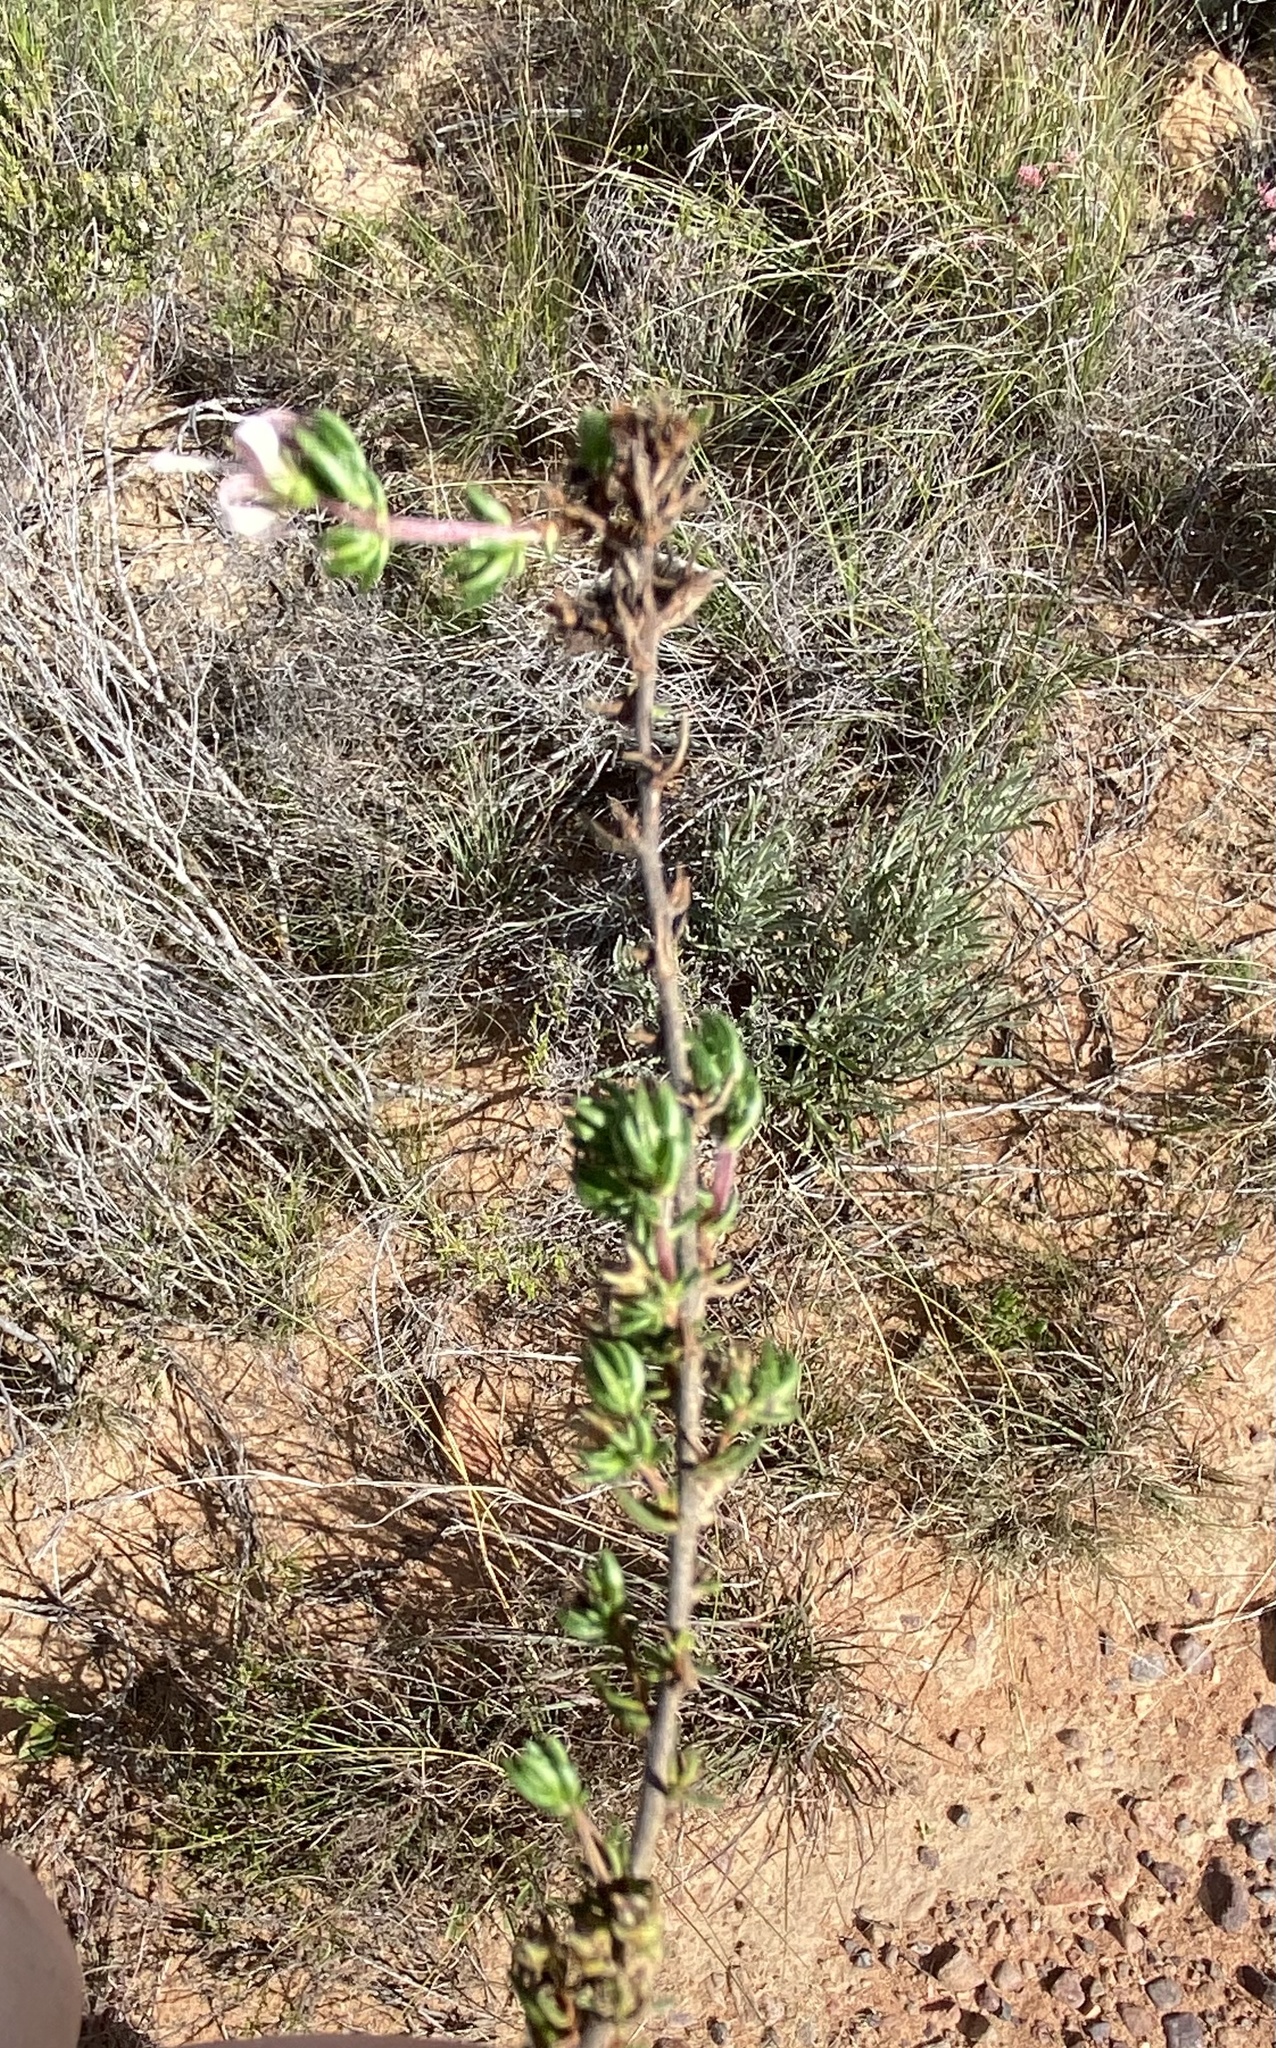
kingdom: Plantae
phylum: Tracheophyta
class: Magnoliopsida
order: Asterales
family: Campanulaceae
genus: Wahlenbergia
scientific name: Wahlenbergia rubens
